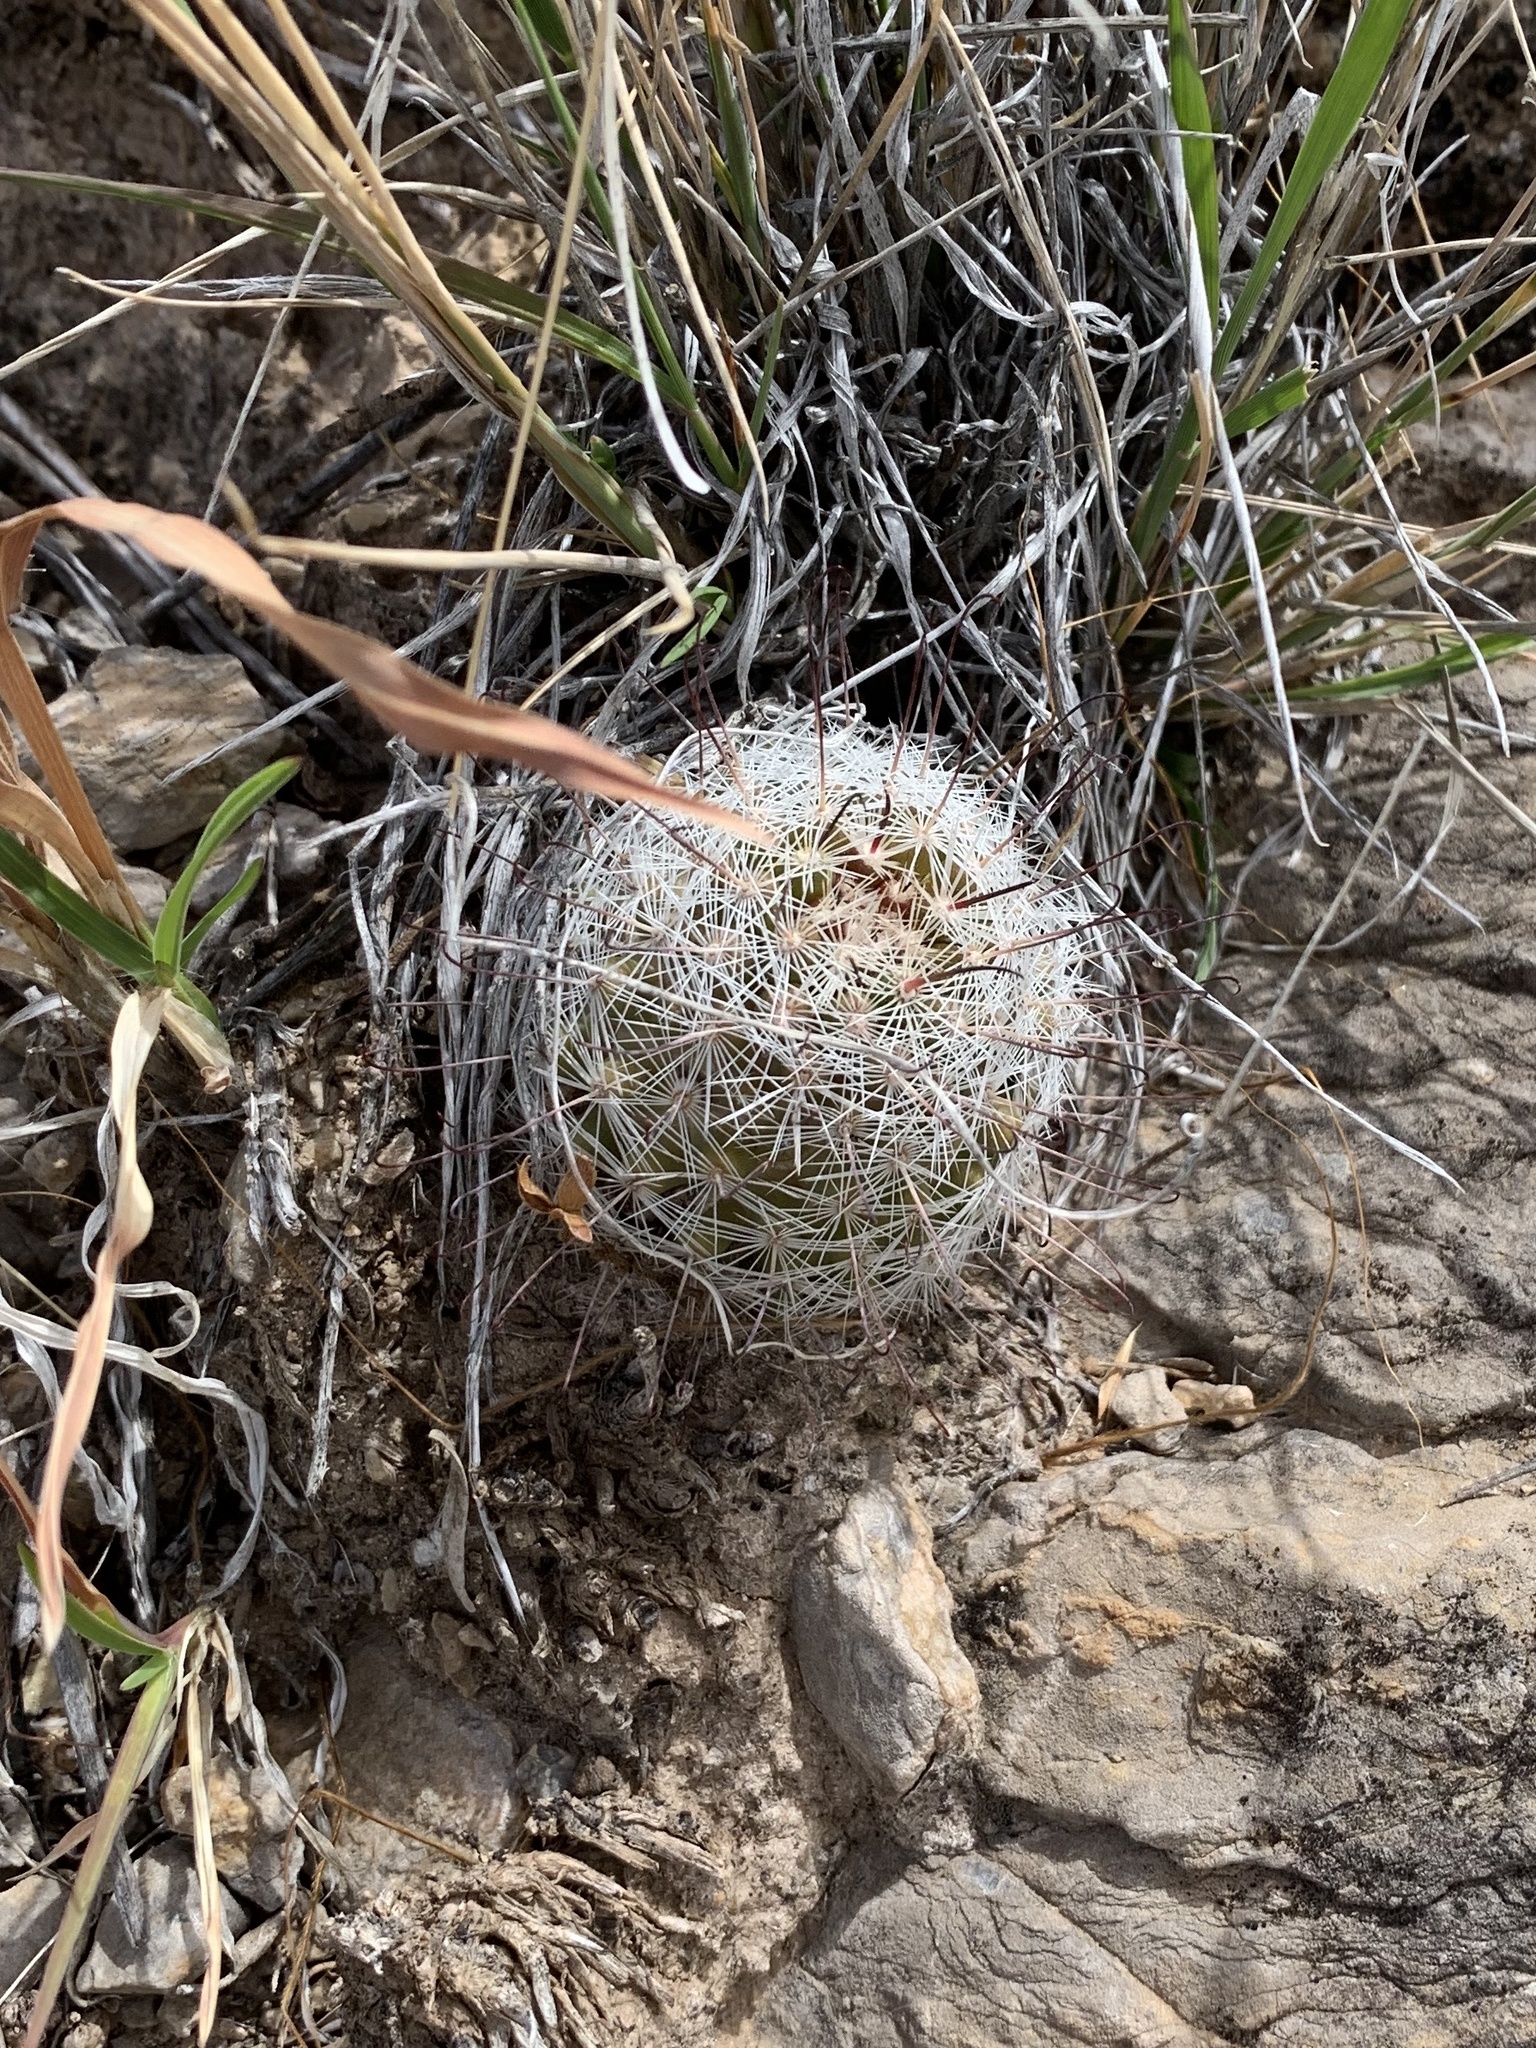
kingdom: Plantae
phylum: Tracheophyta
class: Magnoliopsida
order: Caryophyllales
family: Cactaceae
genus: Cochemiea
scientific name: Cochemiea grahamii
